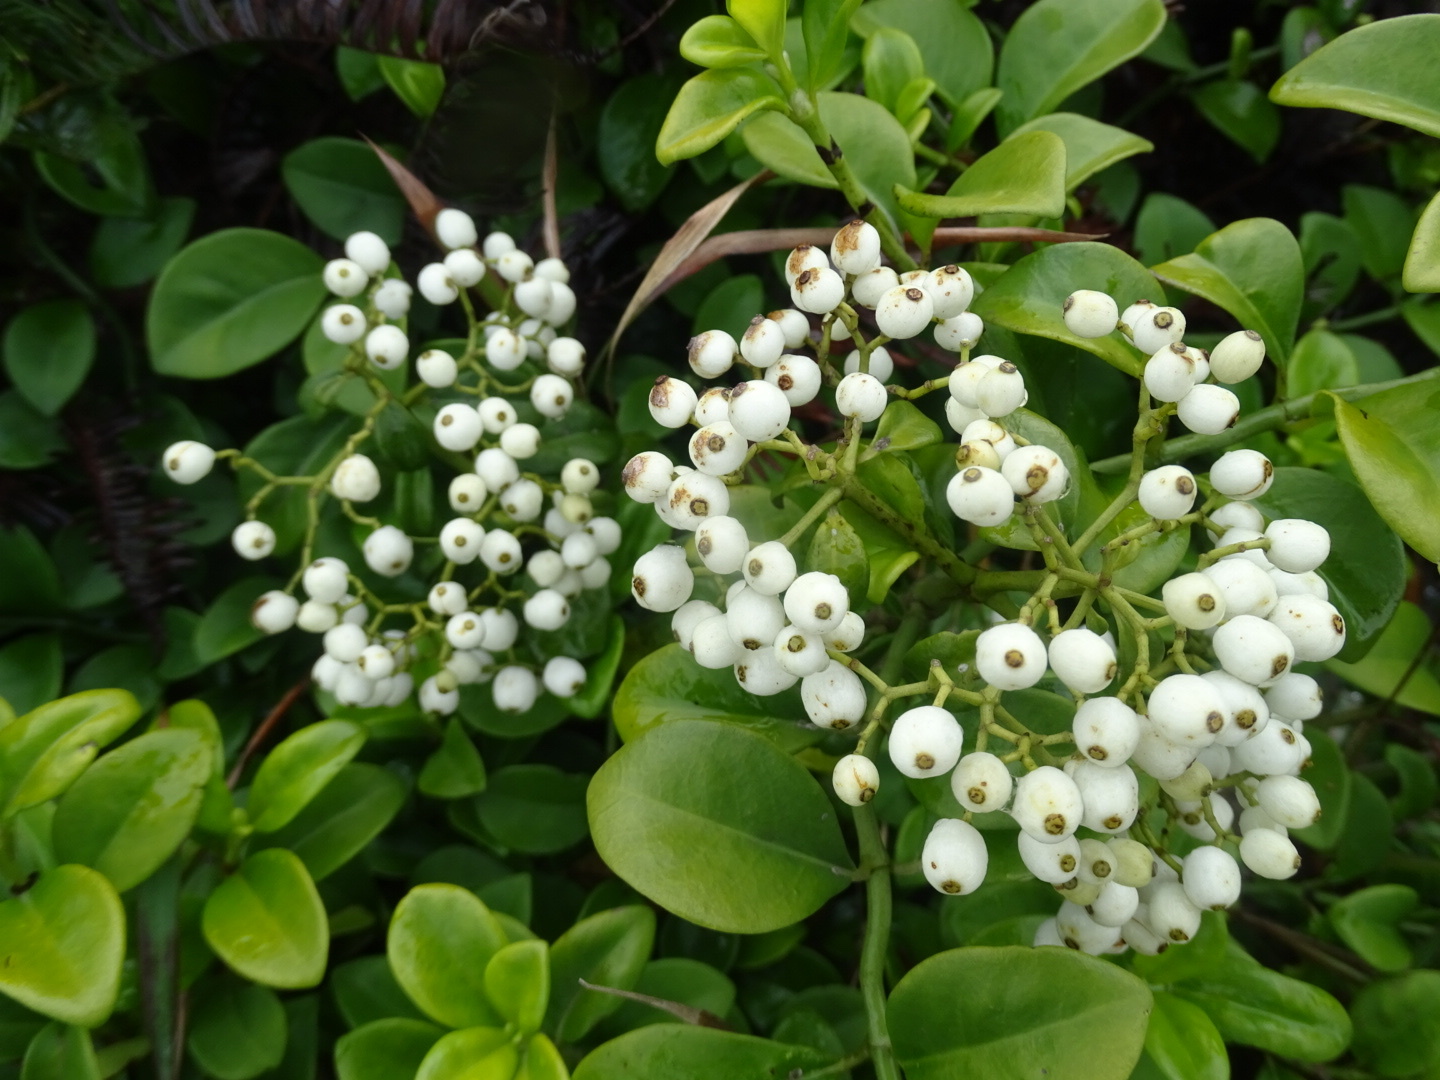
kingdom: Plantae
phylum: Tracheophyta
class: Magnoliopsida
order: Gentianales
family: Rubiaceae
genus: Psychotria
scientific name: Psychotria serpens
